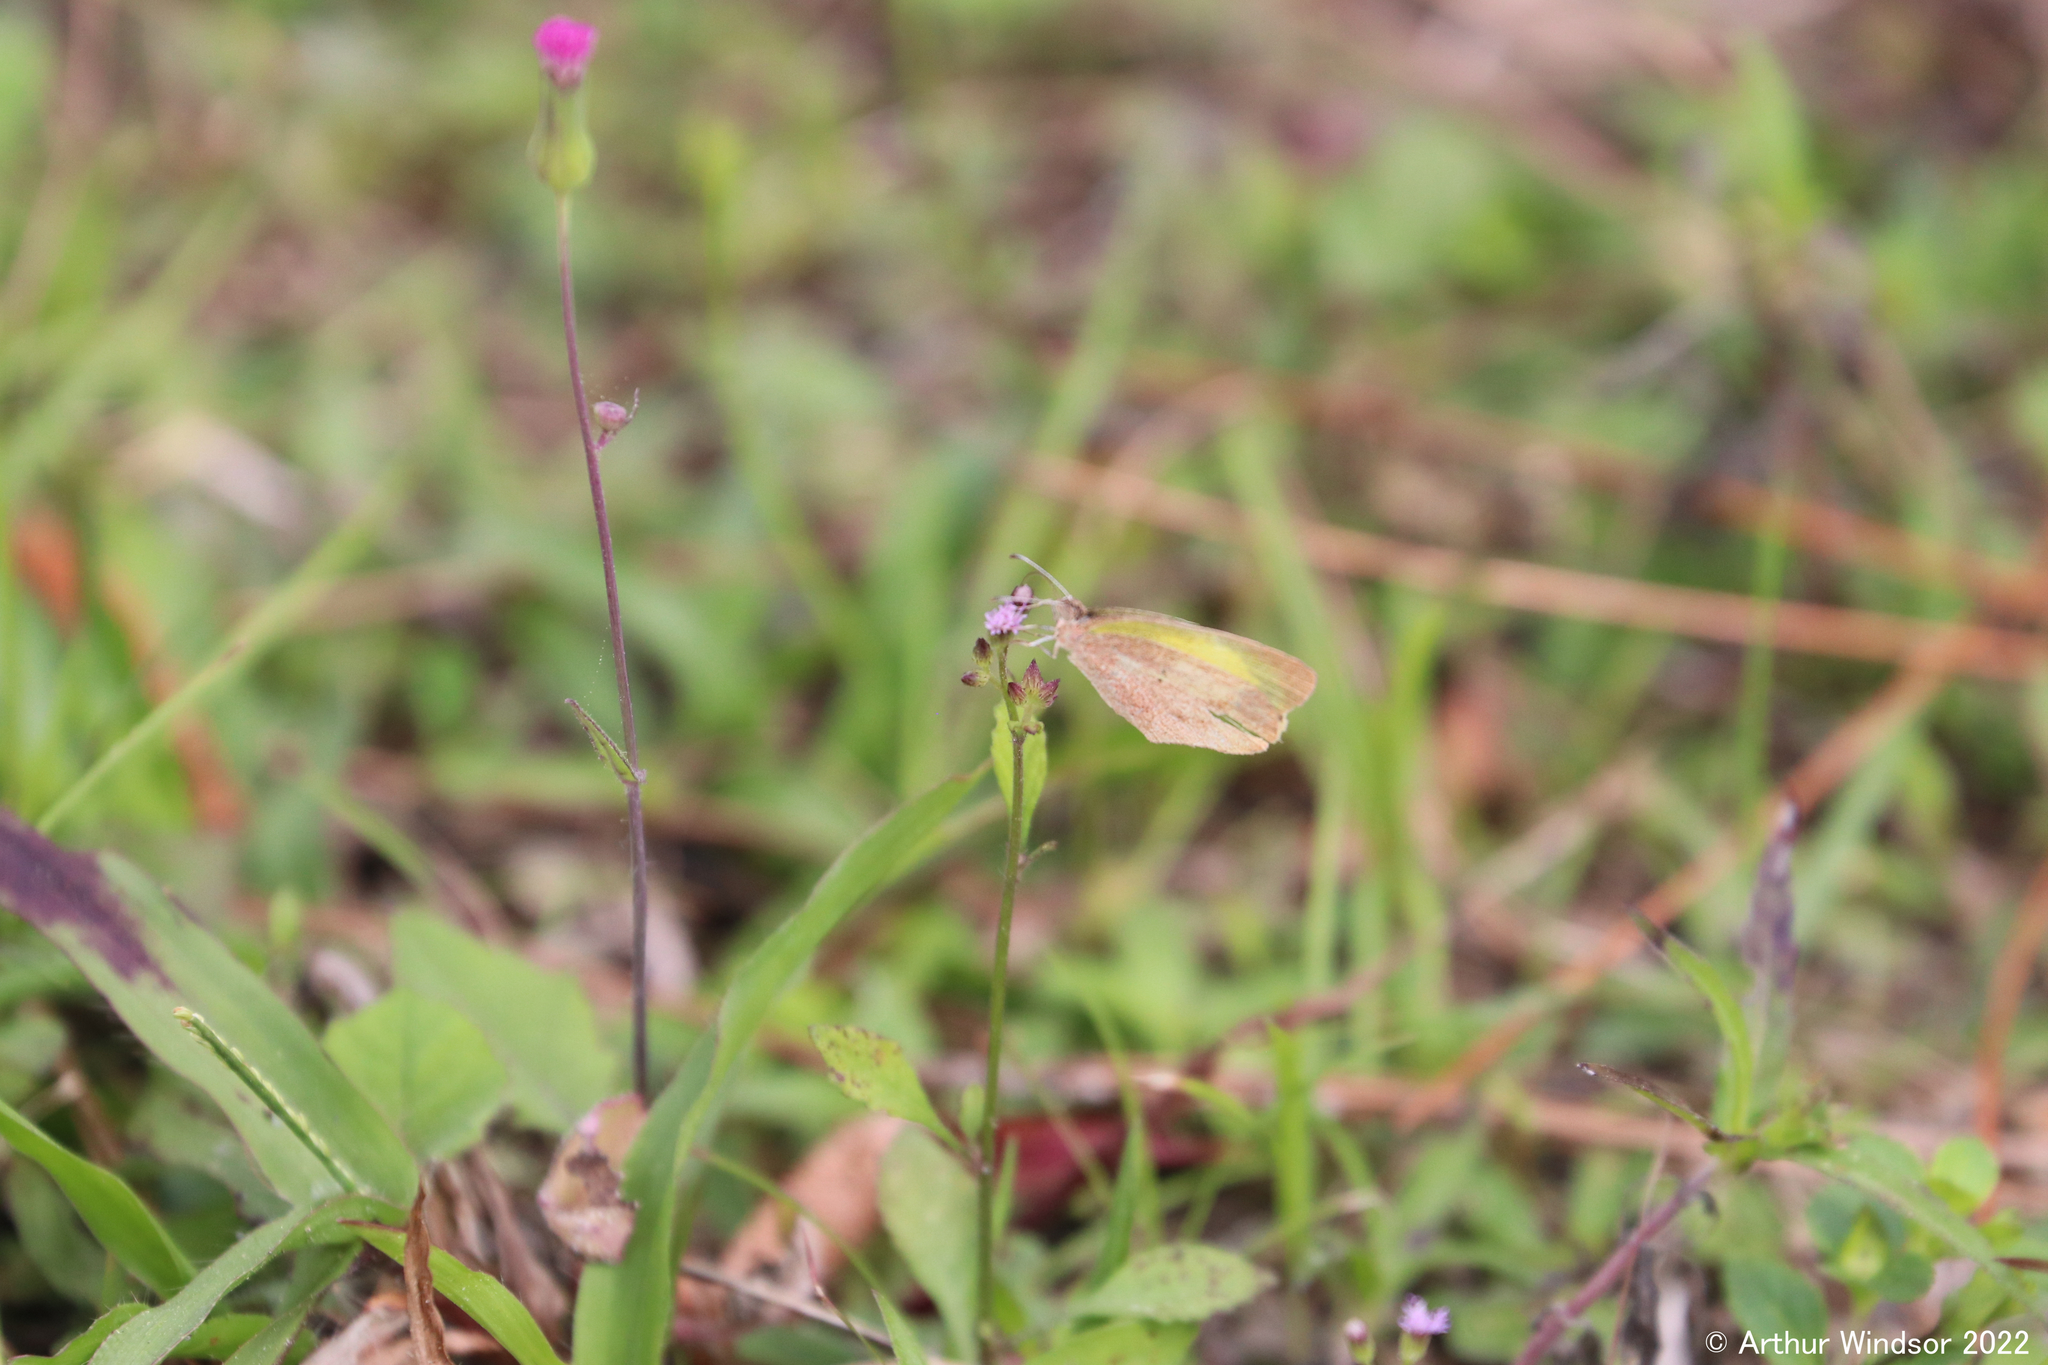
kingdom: Animalia
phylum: Arthropoda
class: Insecta
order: Lepidoptera
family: Pieridae
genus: Eurema
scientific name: Eurema daira
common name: Barred sulphur
